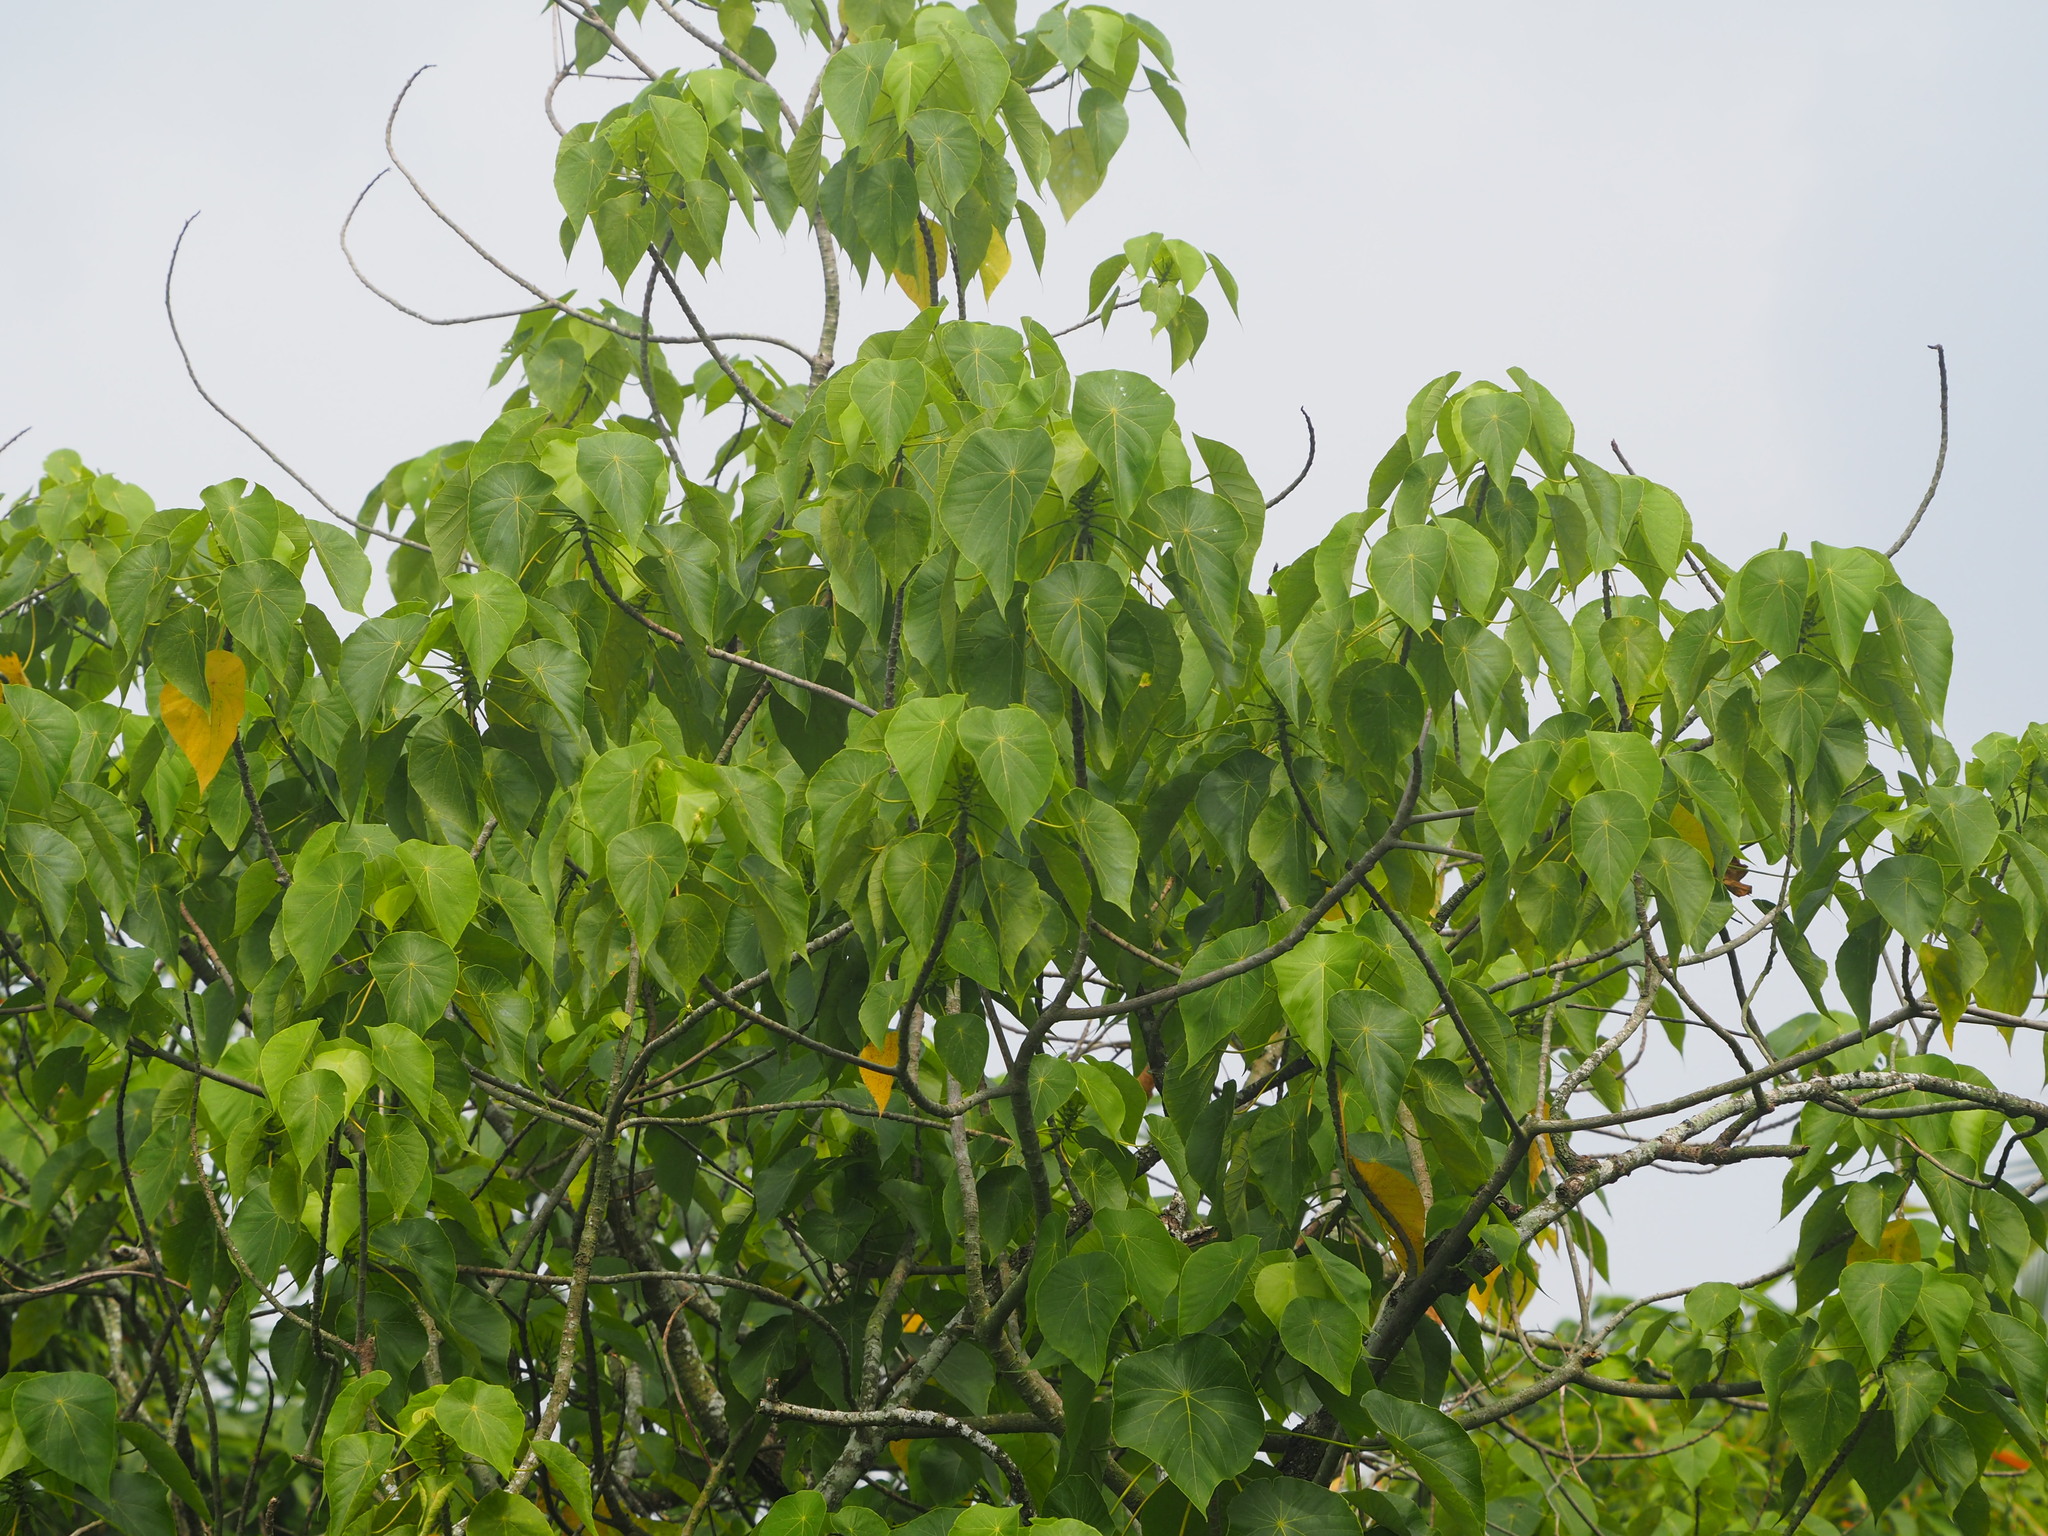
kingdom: Plantae
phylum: Tracheophyta
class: Magnoliopsida
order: Malpighiales
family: Euphorbiaceae
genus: Macaranga
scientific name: Macaranga tanarius
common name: Parasol leaf tree
